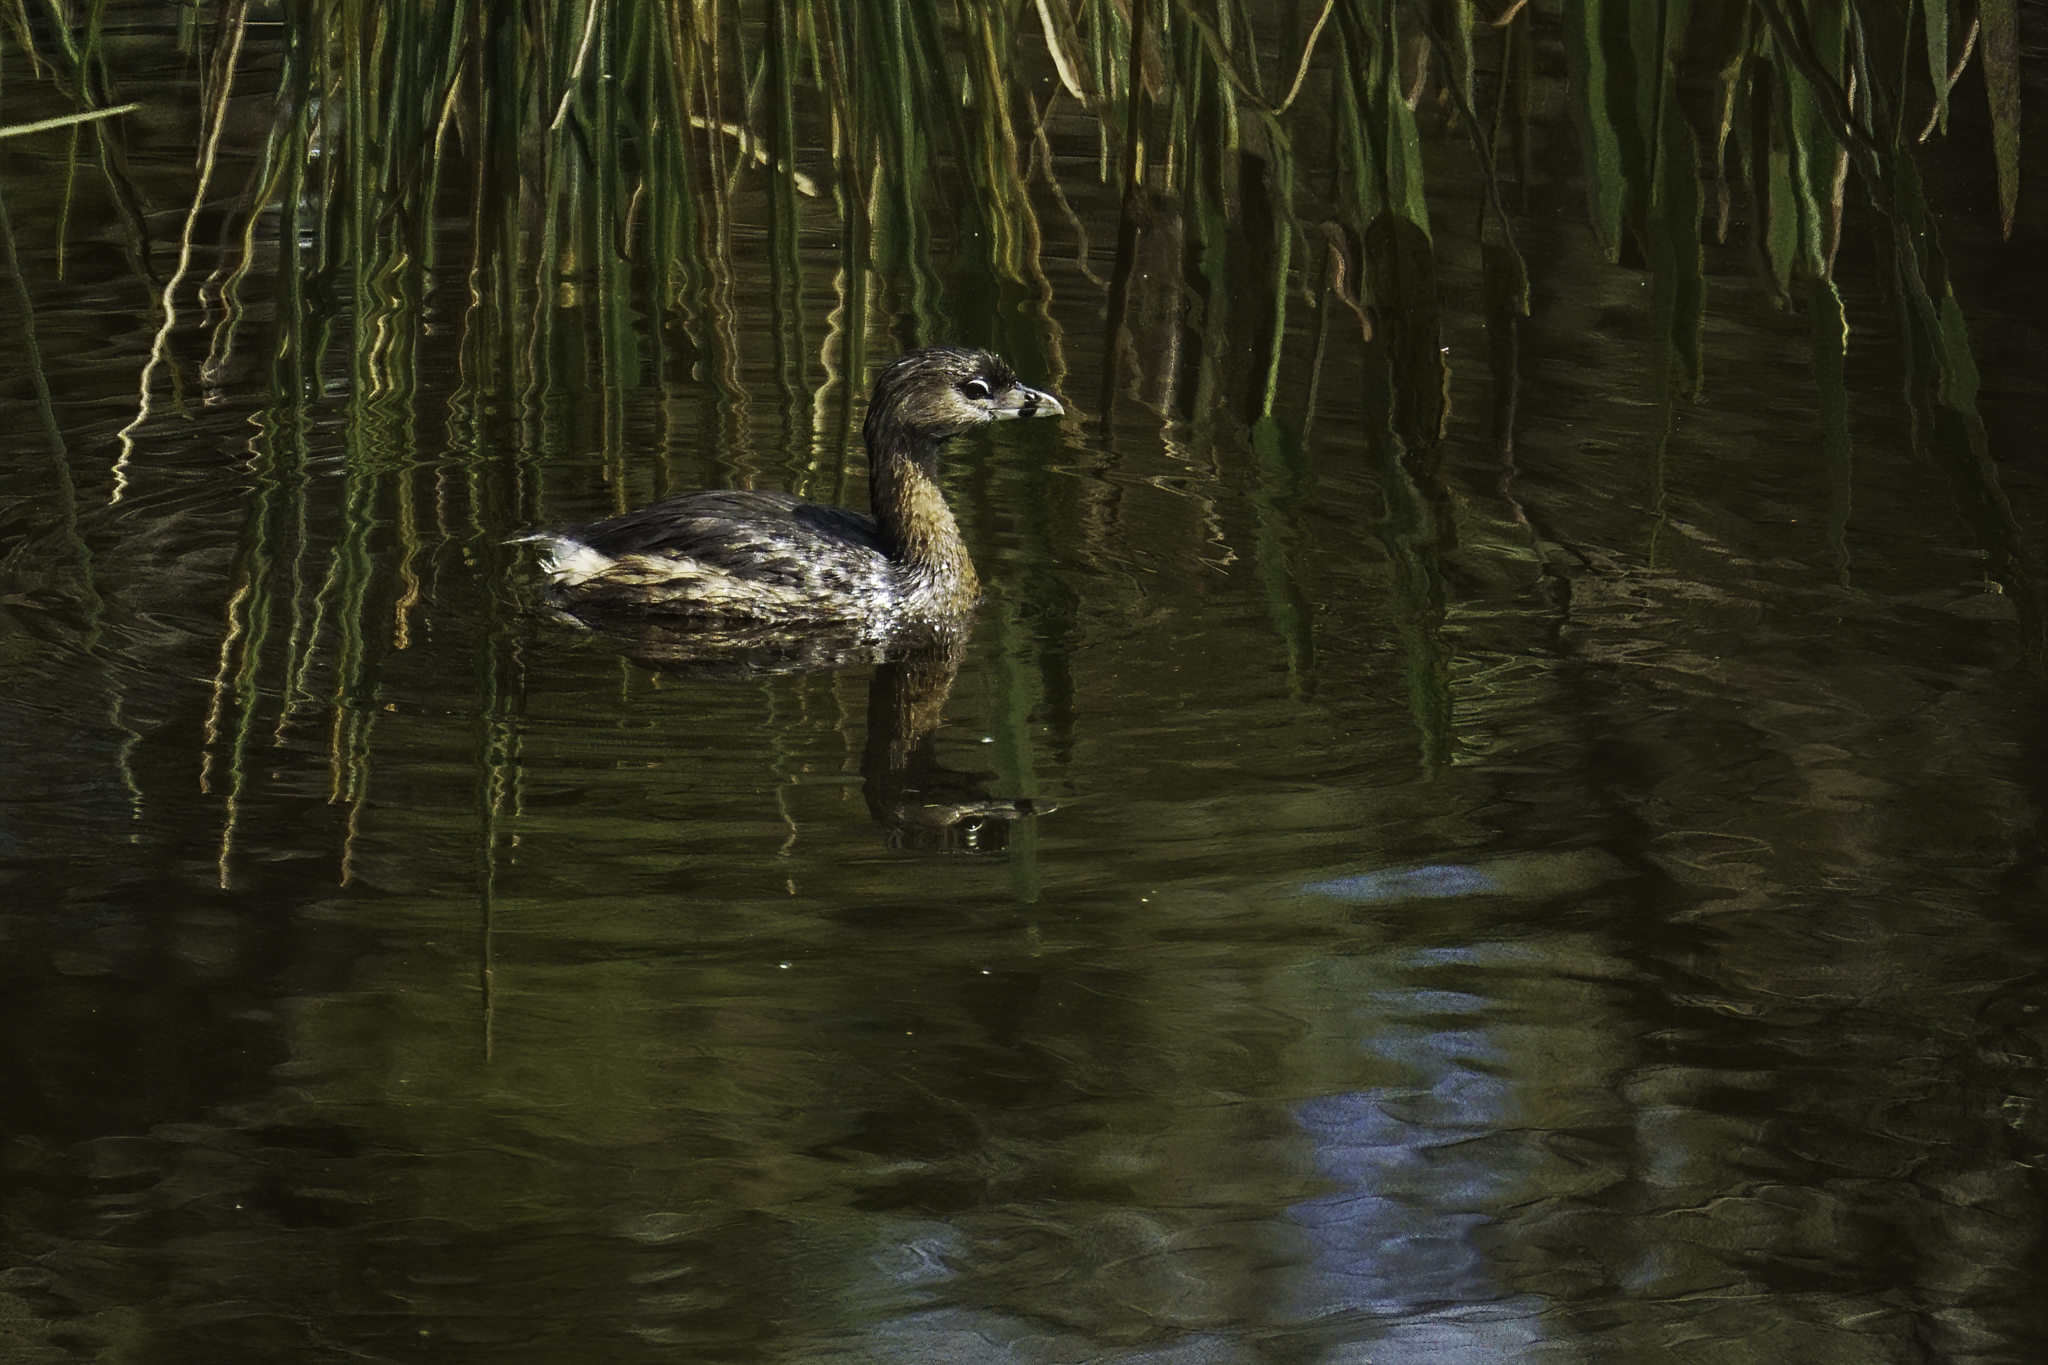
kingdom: Animalia
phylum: Chordata
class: Aves
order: Podicipediformes
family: Podicipedidae
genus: Podilymbus
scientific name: Podilymbus podiceps
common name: Pied-billed grebe
